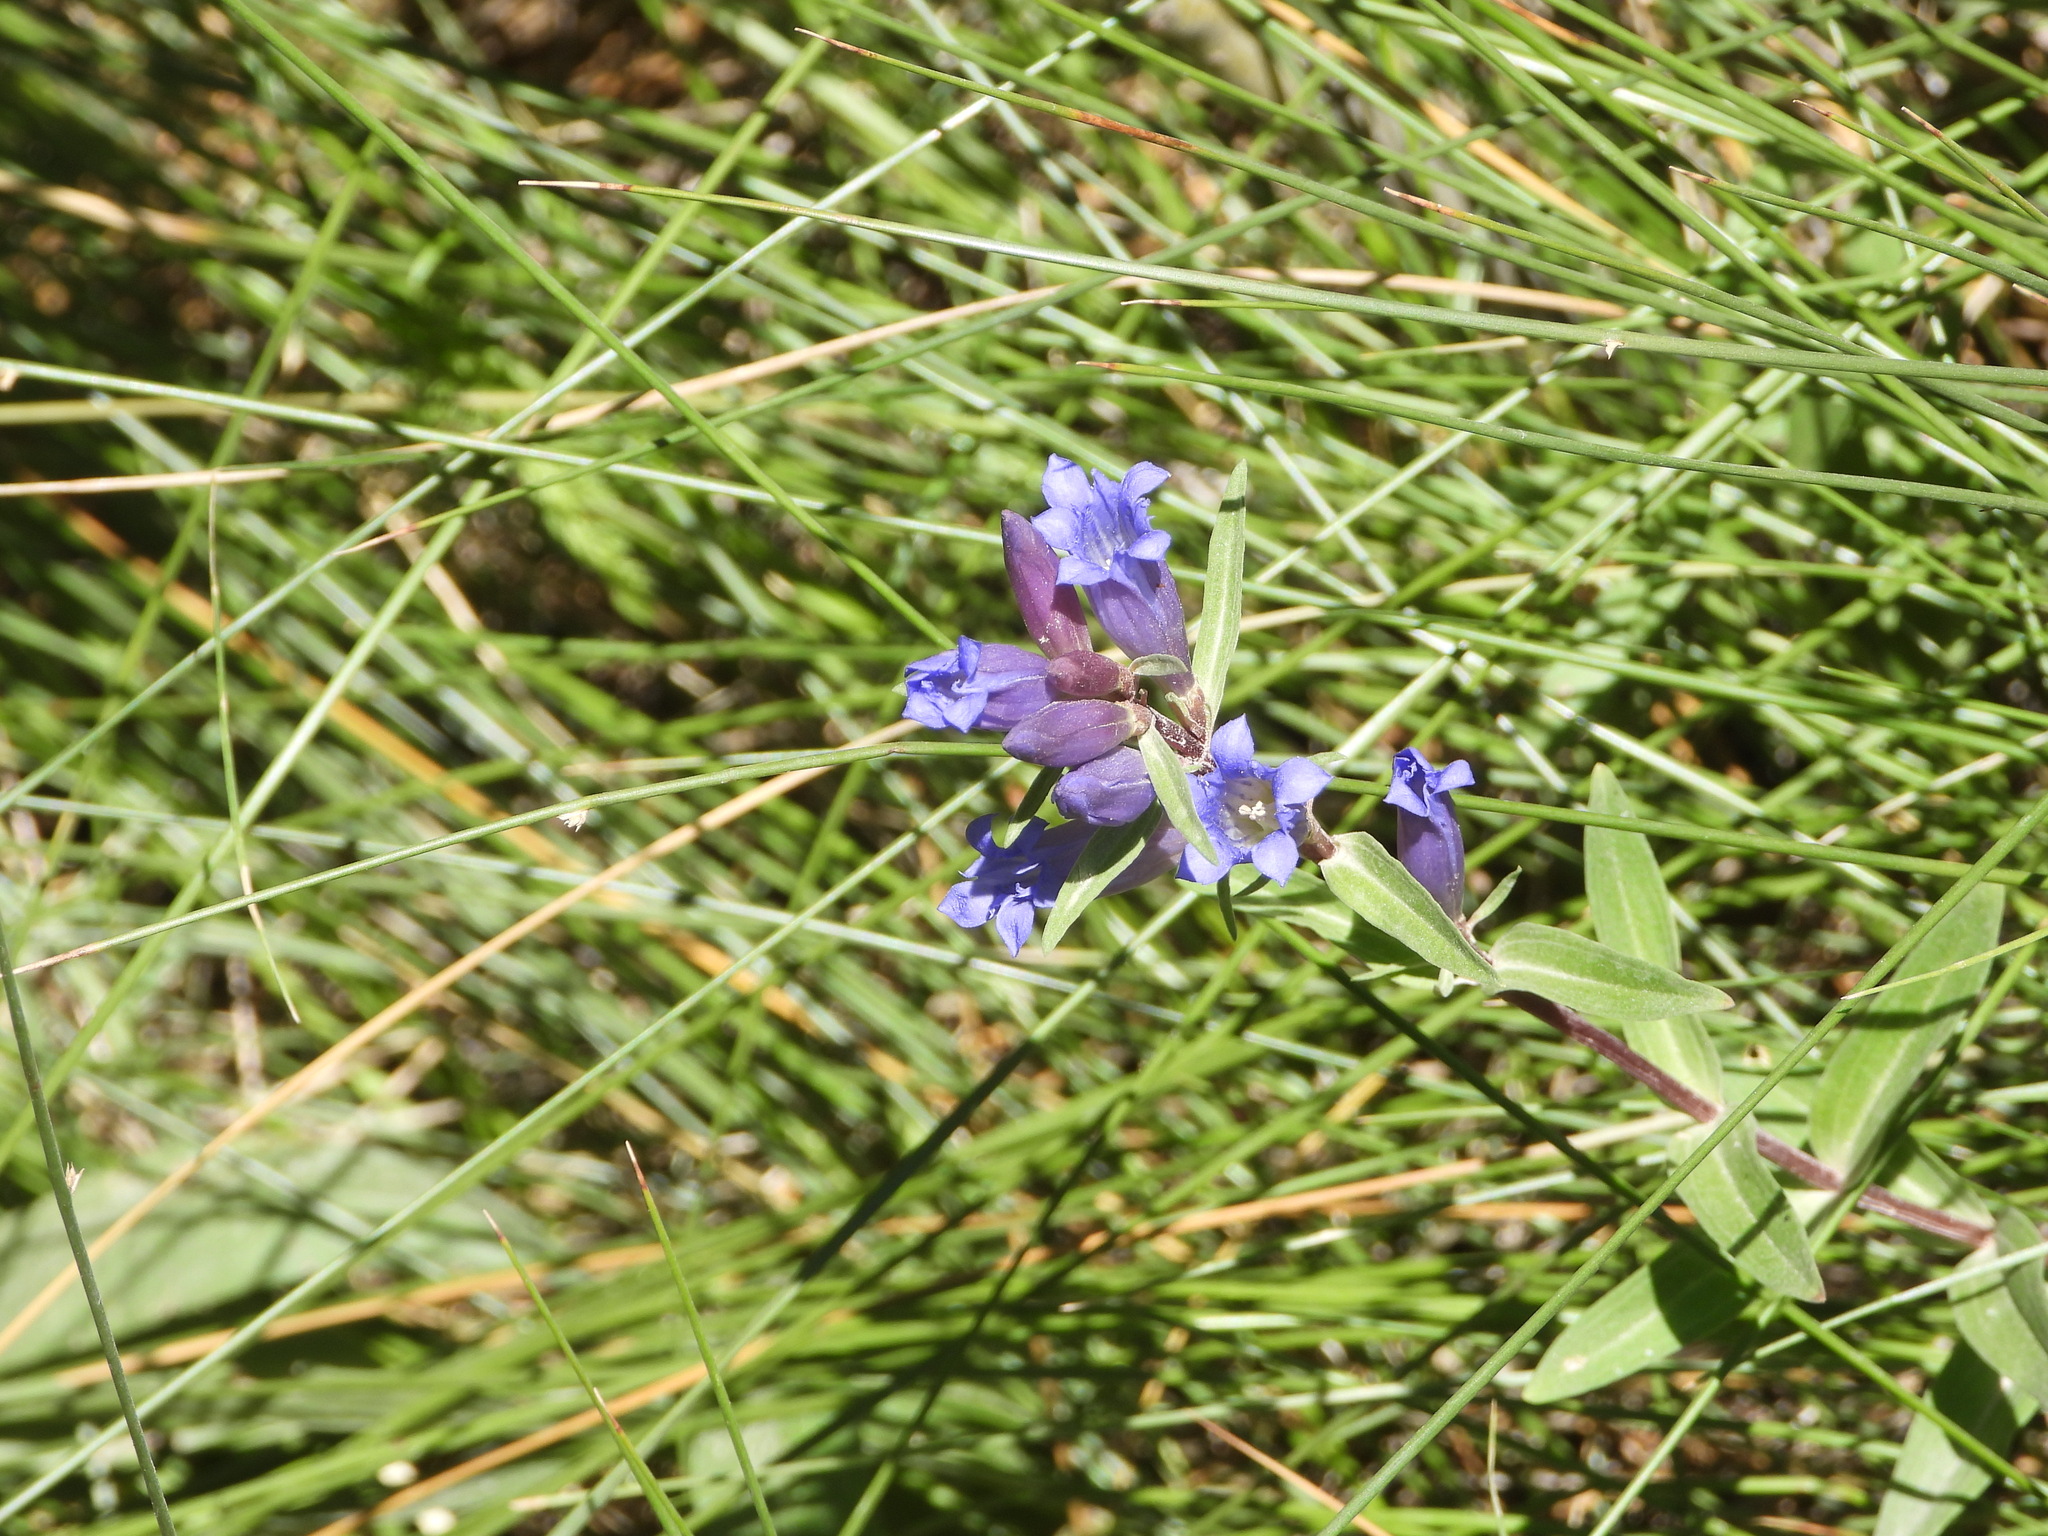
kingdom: Plantae
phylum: Tracheophyta
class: Magnoliopsida
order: Gentianales
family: Gentianaceae
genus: Gentiana
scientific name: Gentiana affinis
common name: Rocky mountain gentian
